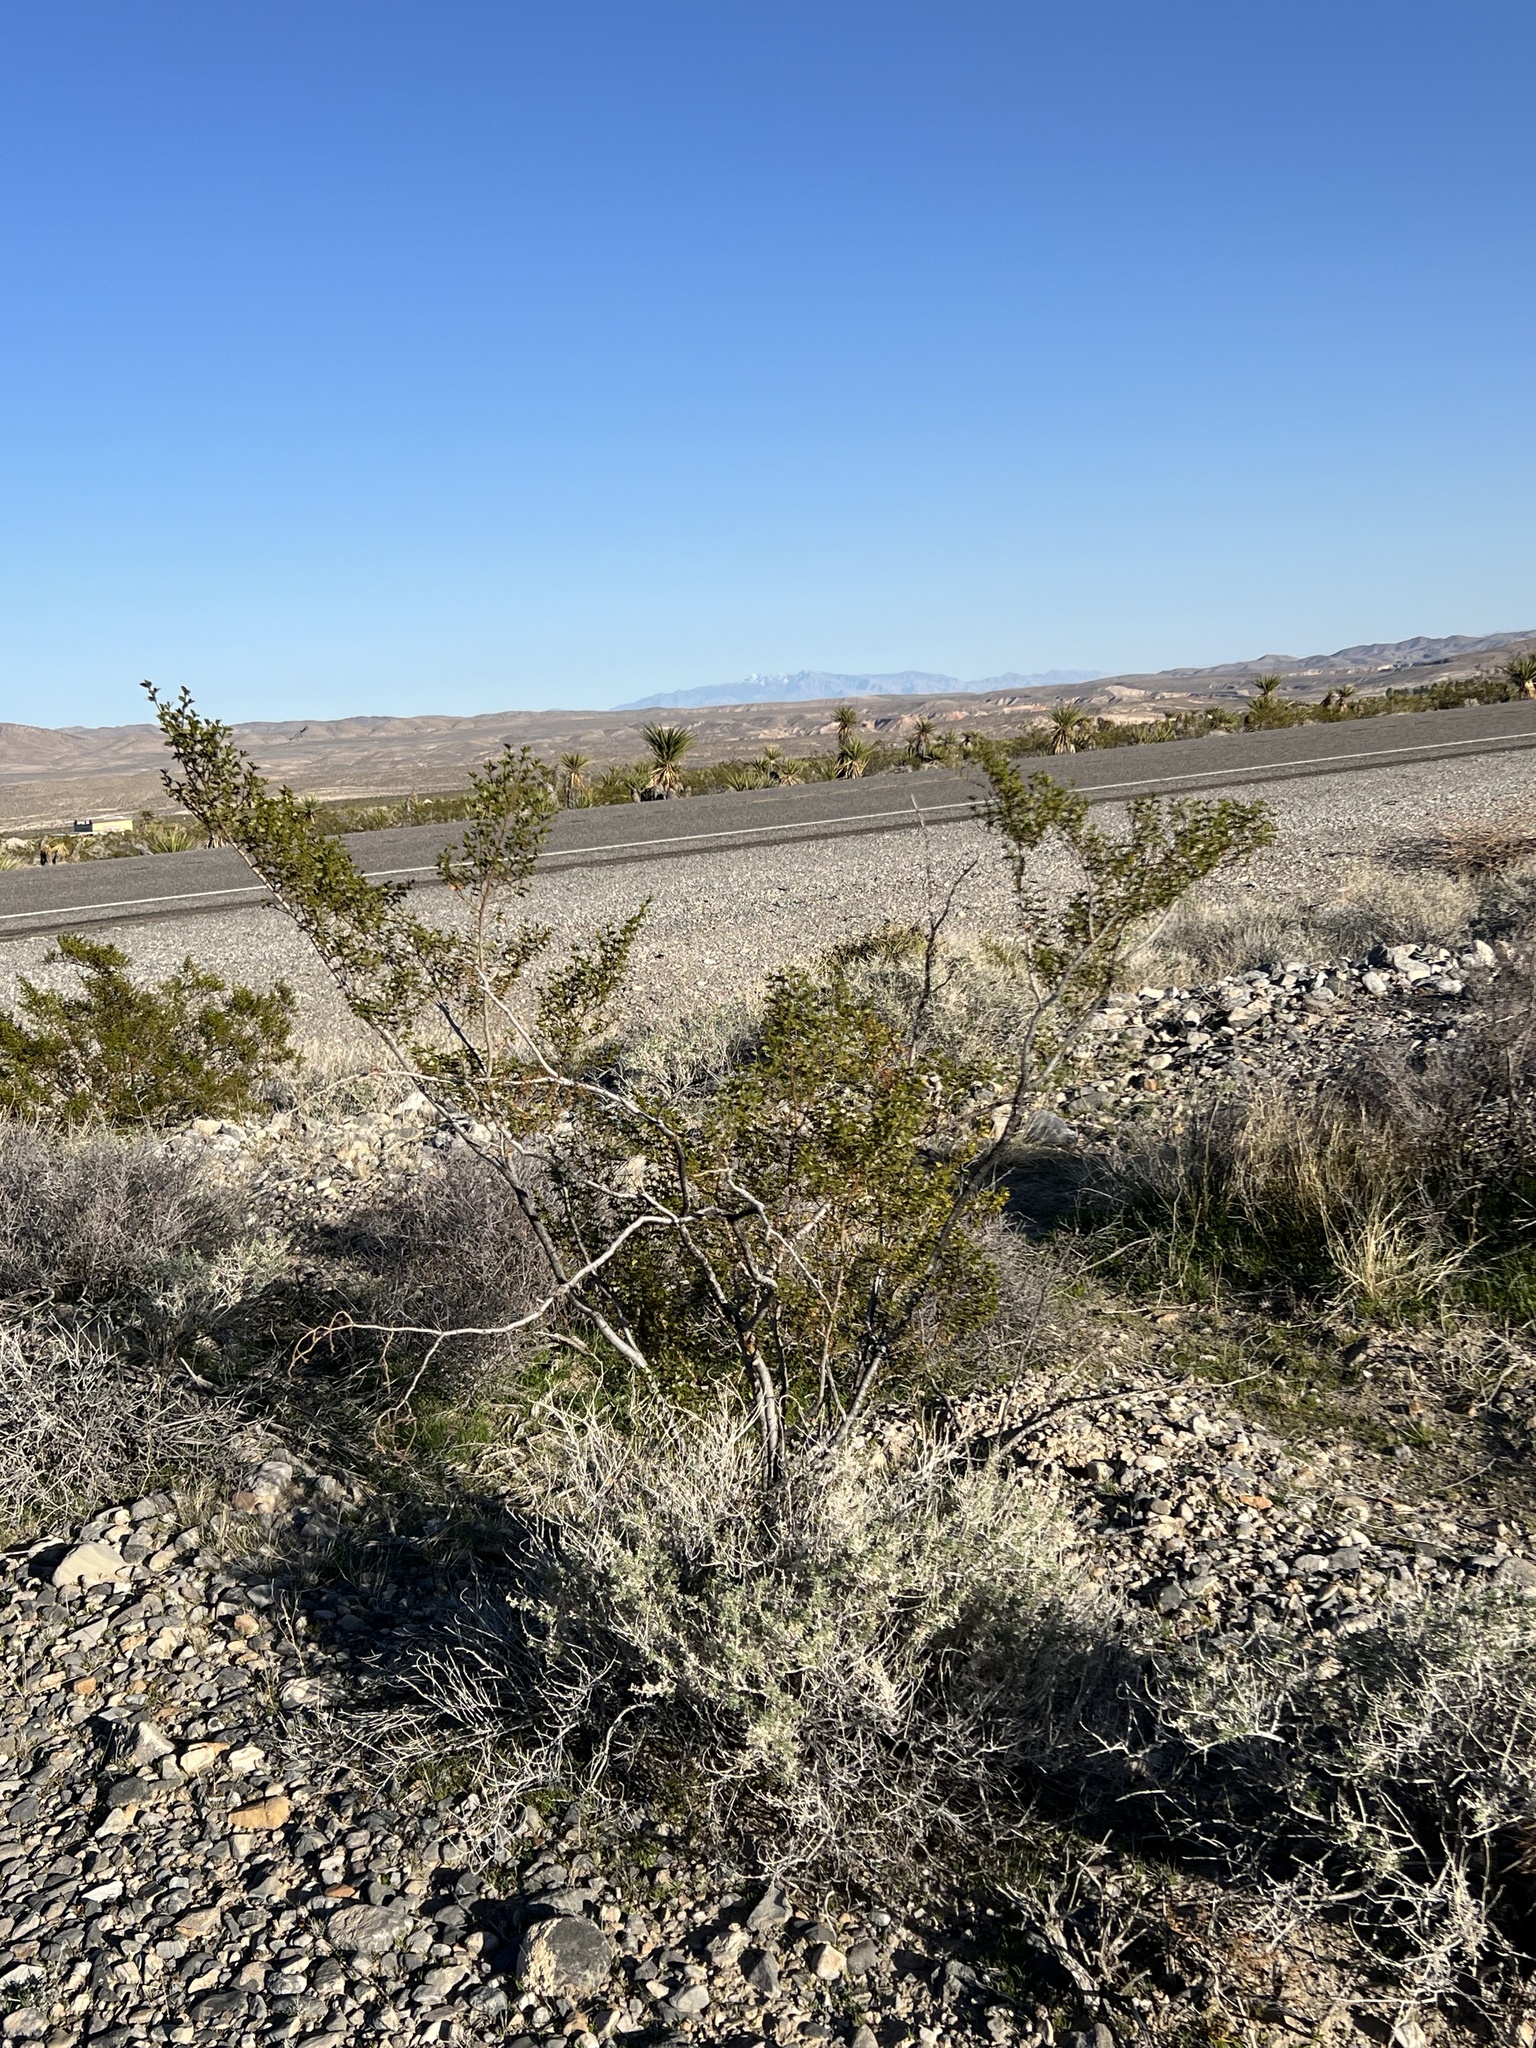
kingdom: Plantae
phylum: Tracheophyta
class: Magnoliopsida
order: Zygophyllales
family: Zygophyllaceae
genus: Larrea
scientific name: Larrea tridentata
